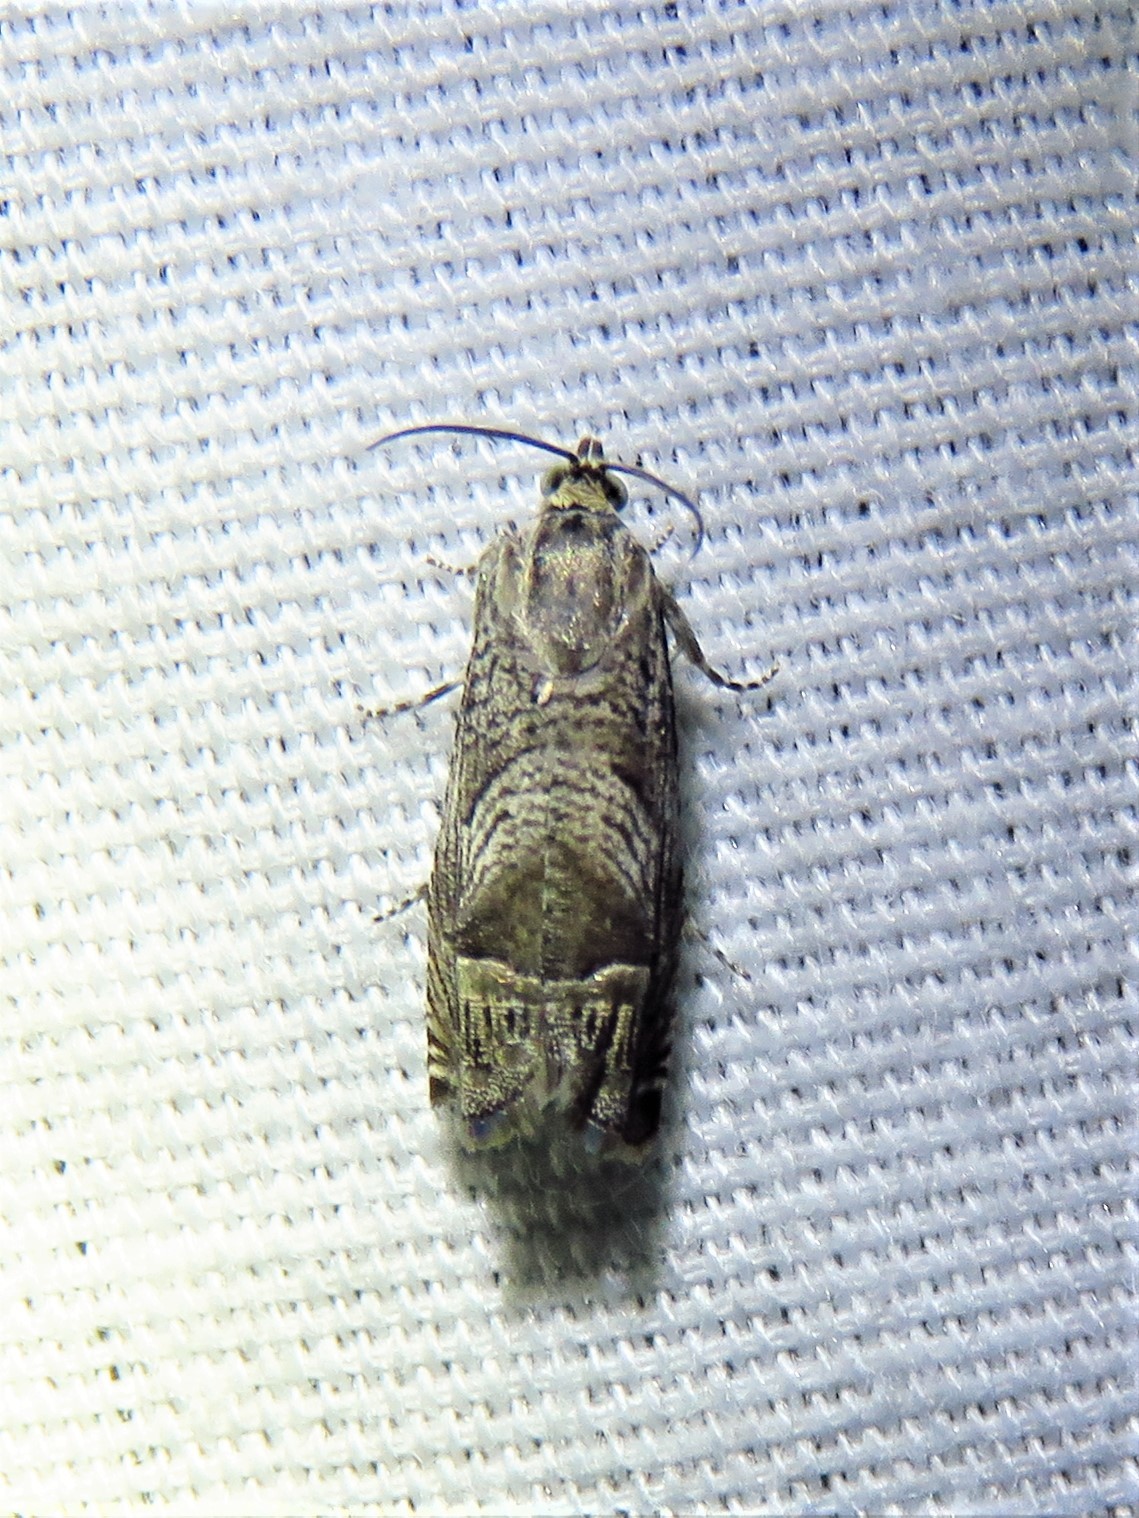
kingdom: Animalia
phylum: Arthropoda
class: Insecta
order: Lepidoptera
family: Tortricidae
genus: Ofatulena
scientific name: Ofatulena duodecemstriata
